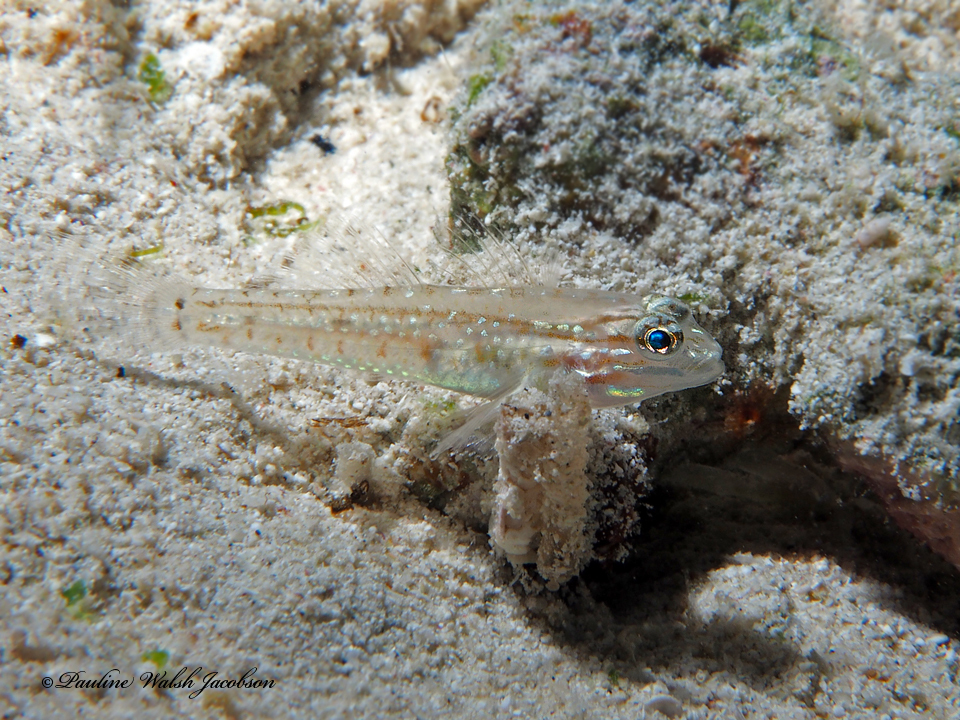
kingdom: Animalia
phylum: Chordata
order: Perciformes
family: Gobiidae
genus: Coryphopterus
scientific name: Coryphopterus glaucofraenum
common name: Bridled goby
